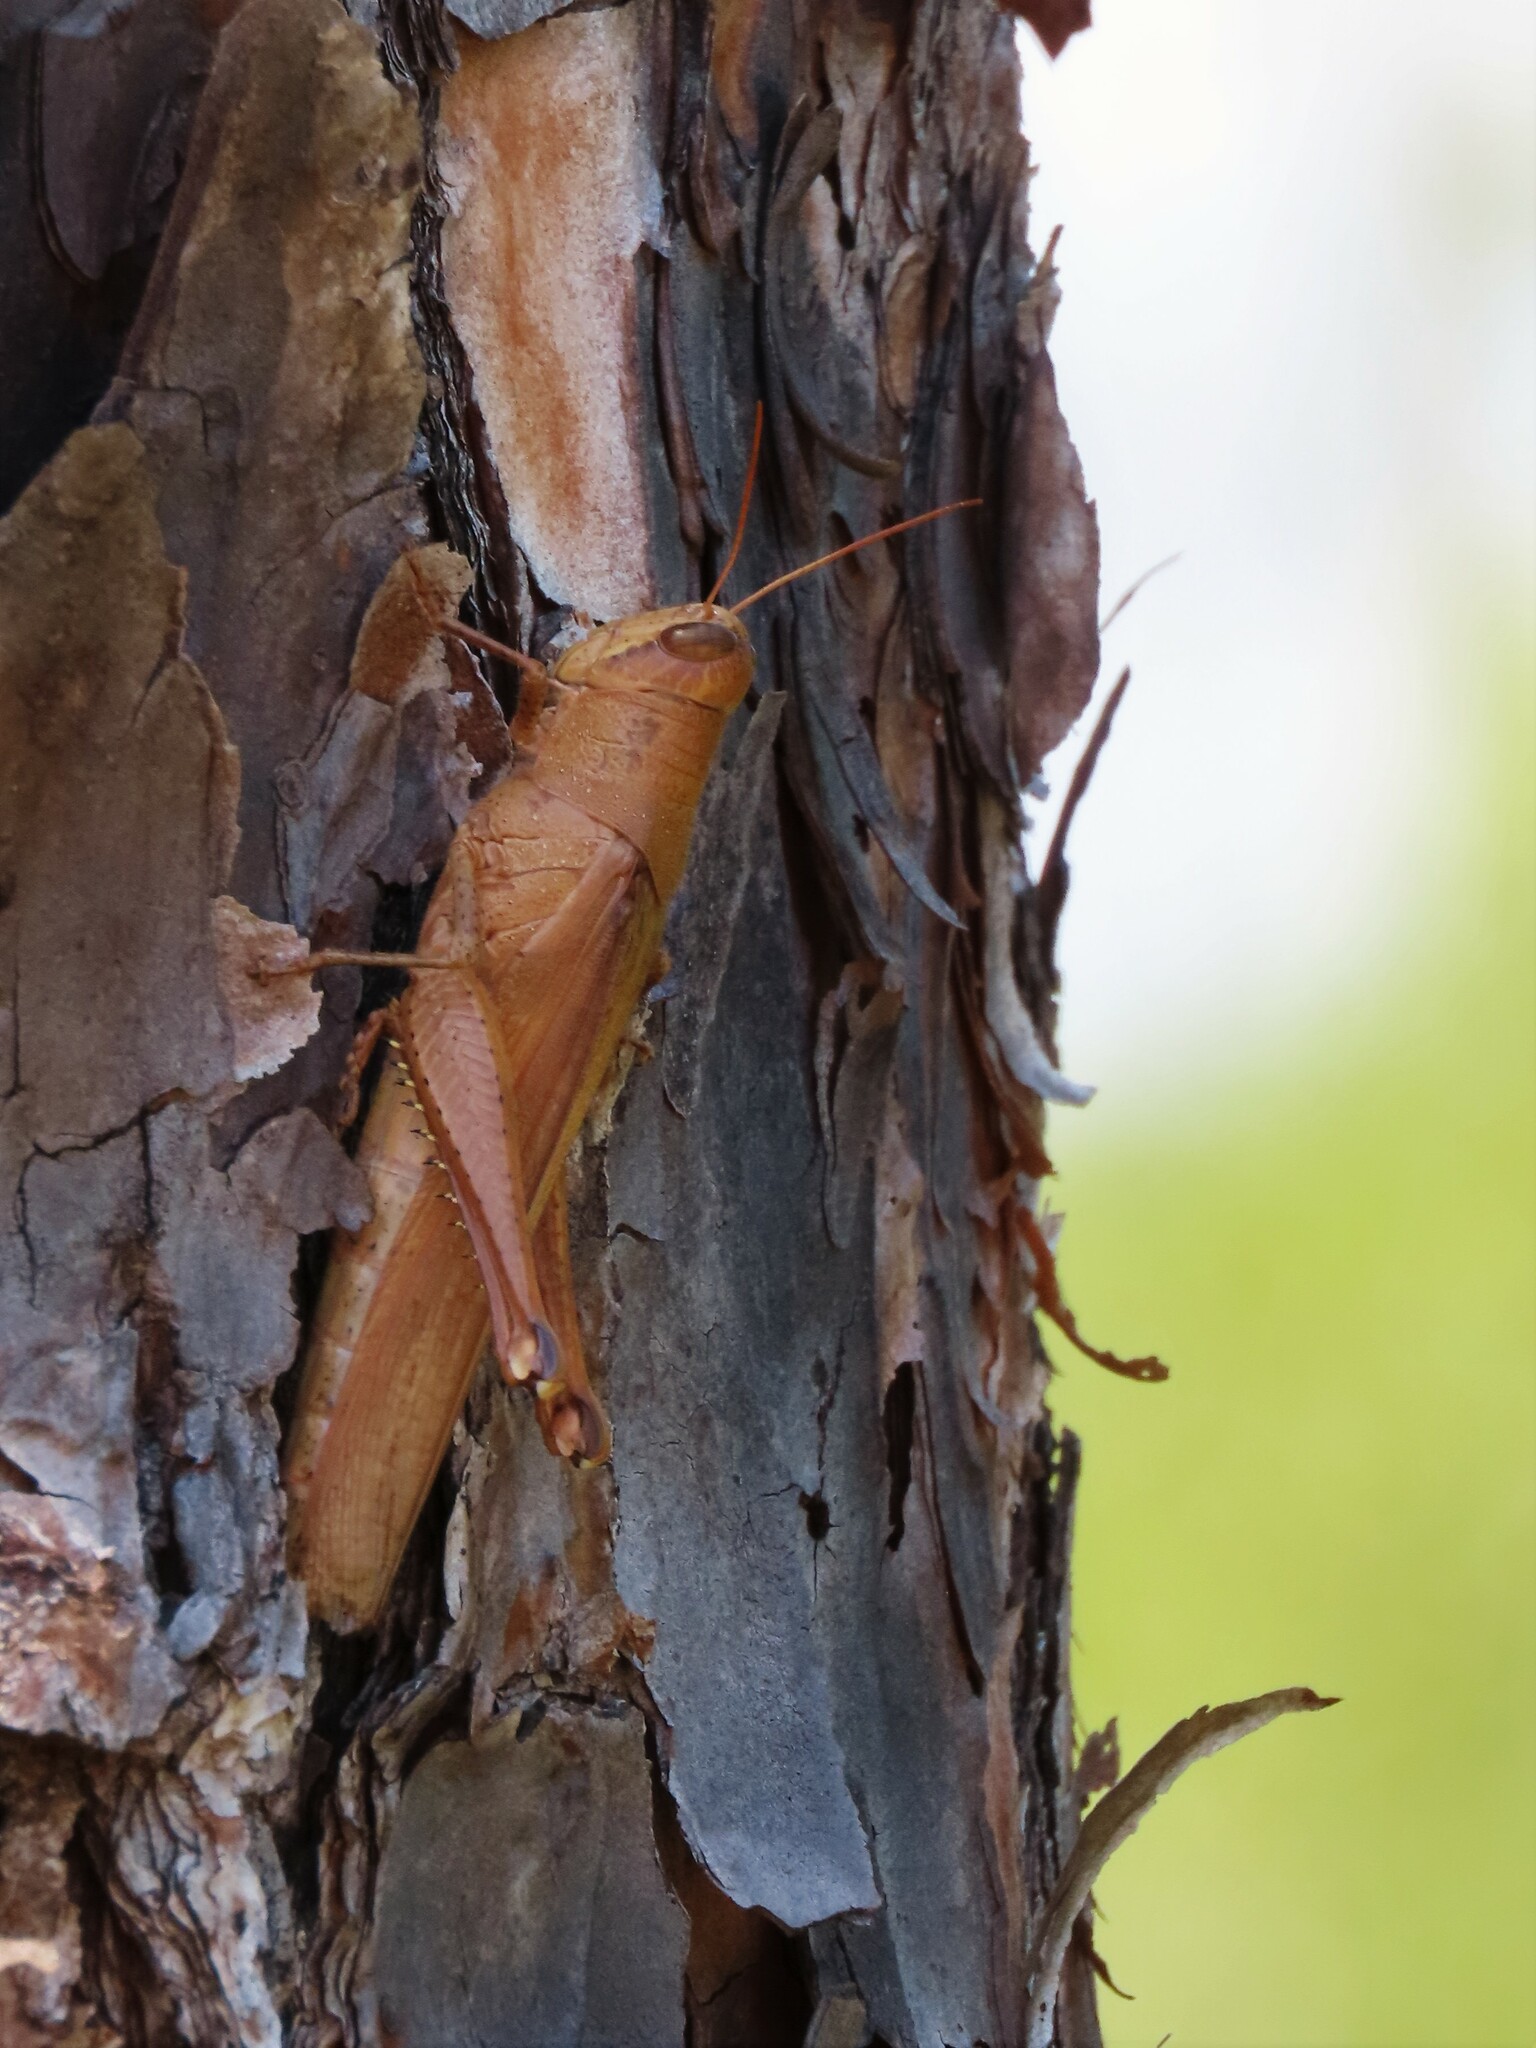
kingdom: Animalia
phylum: Arthropoda
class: Insecta
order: Orthoptera
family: Acrididae
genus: Schistocerca
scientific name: Schistocerca rubiginosa
